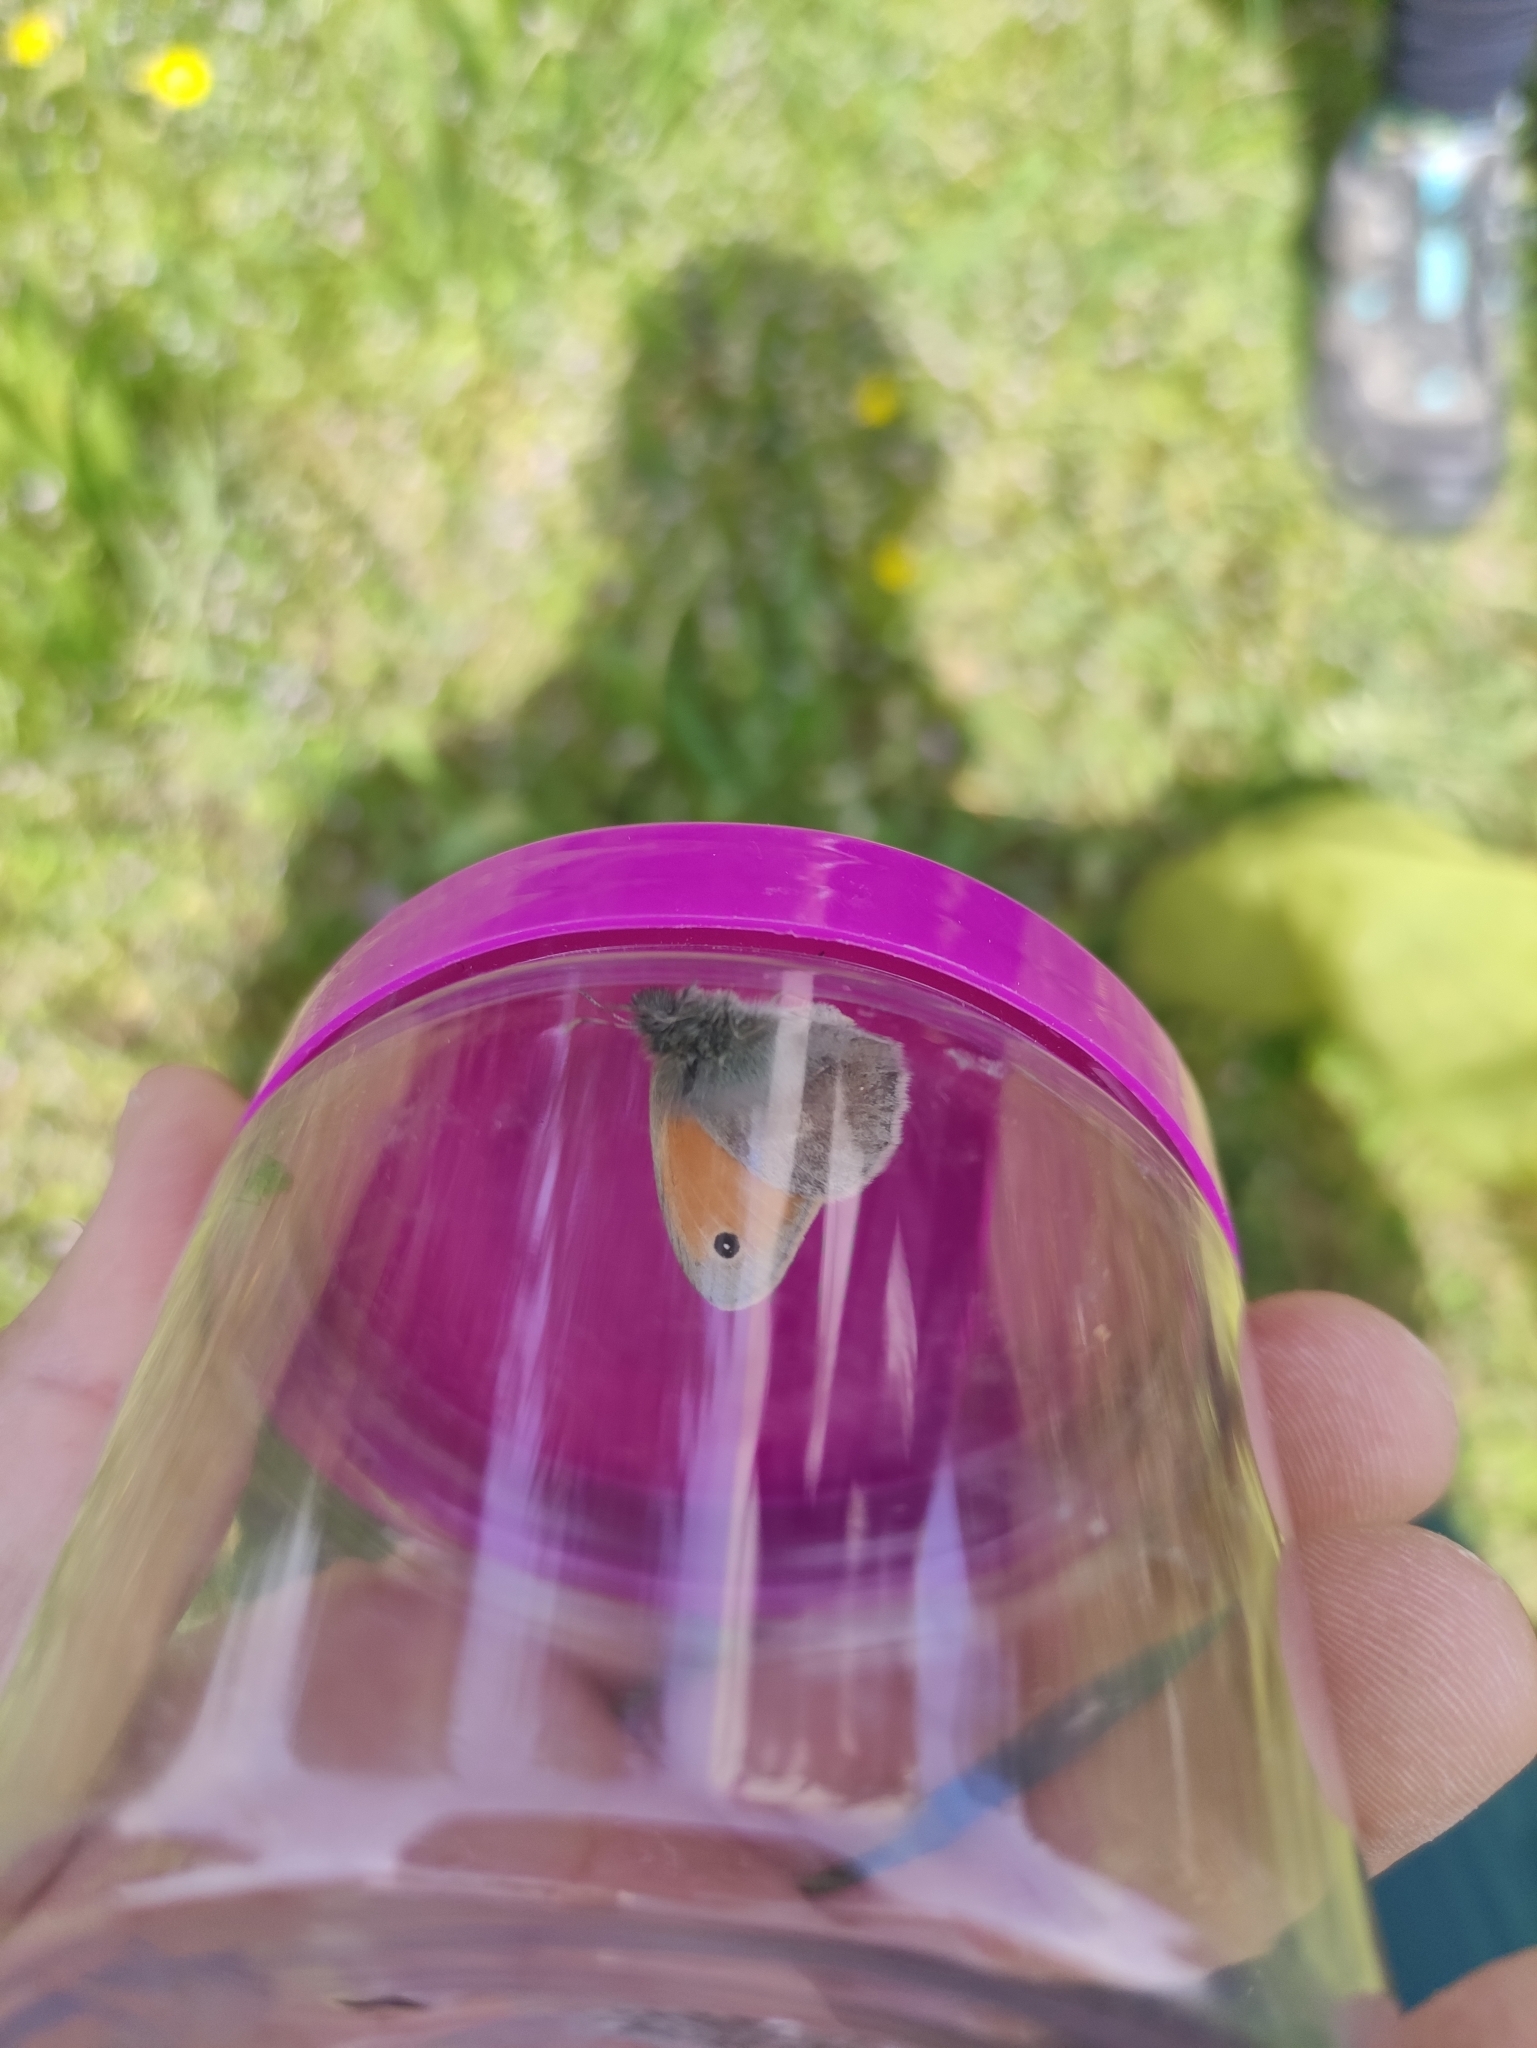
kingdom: Animalia
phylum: Arthropoda
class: Insecta
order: Lepidoptera
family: Nymphalidae
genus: Coenonympha
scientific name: Coenonympha pamphilus
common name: Small heath
